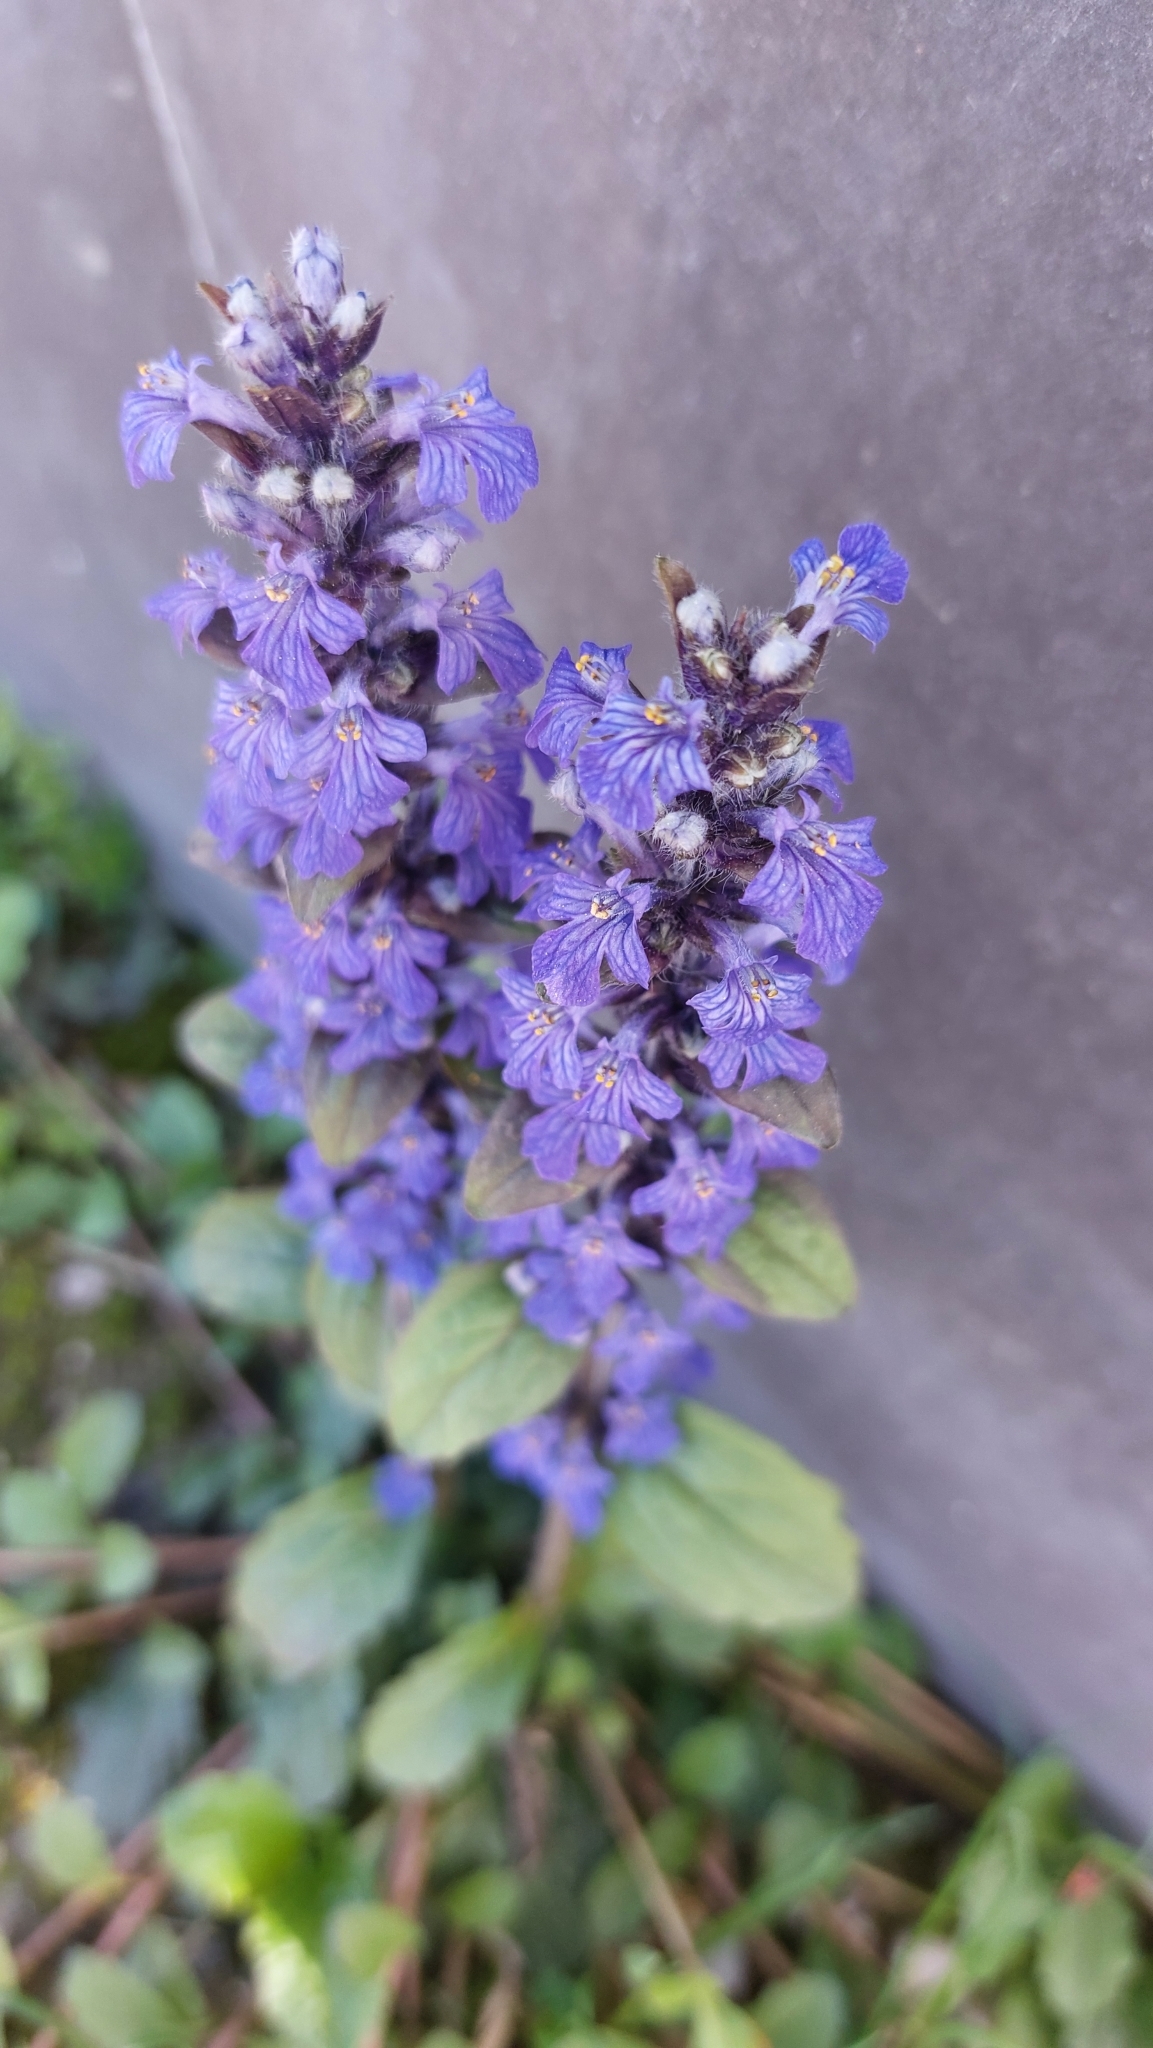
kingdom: Plantae
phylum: Tracheophyta
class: Magnoliopsida
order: Lamiales
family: Lamiaceae
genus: Ajuga
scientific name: Ajuga reptans
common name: Bugle
